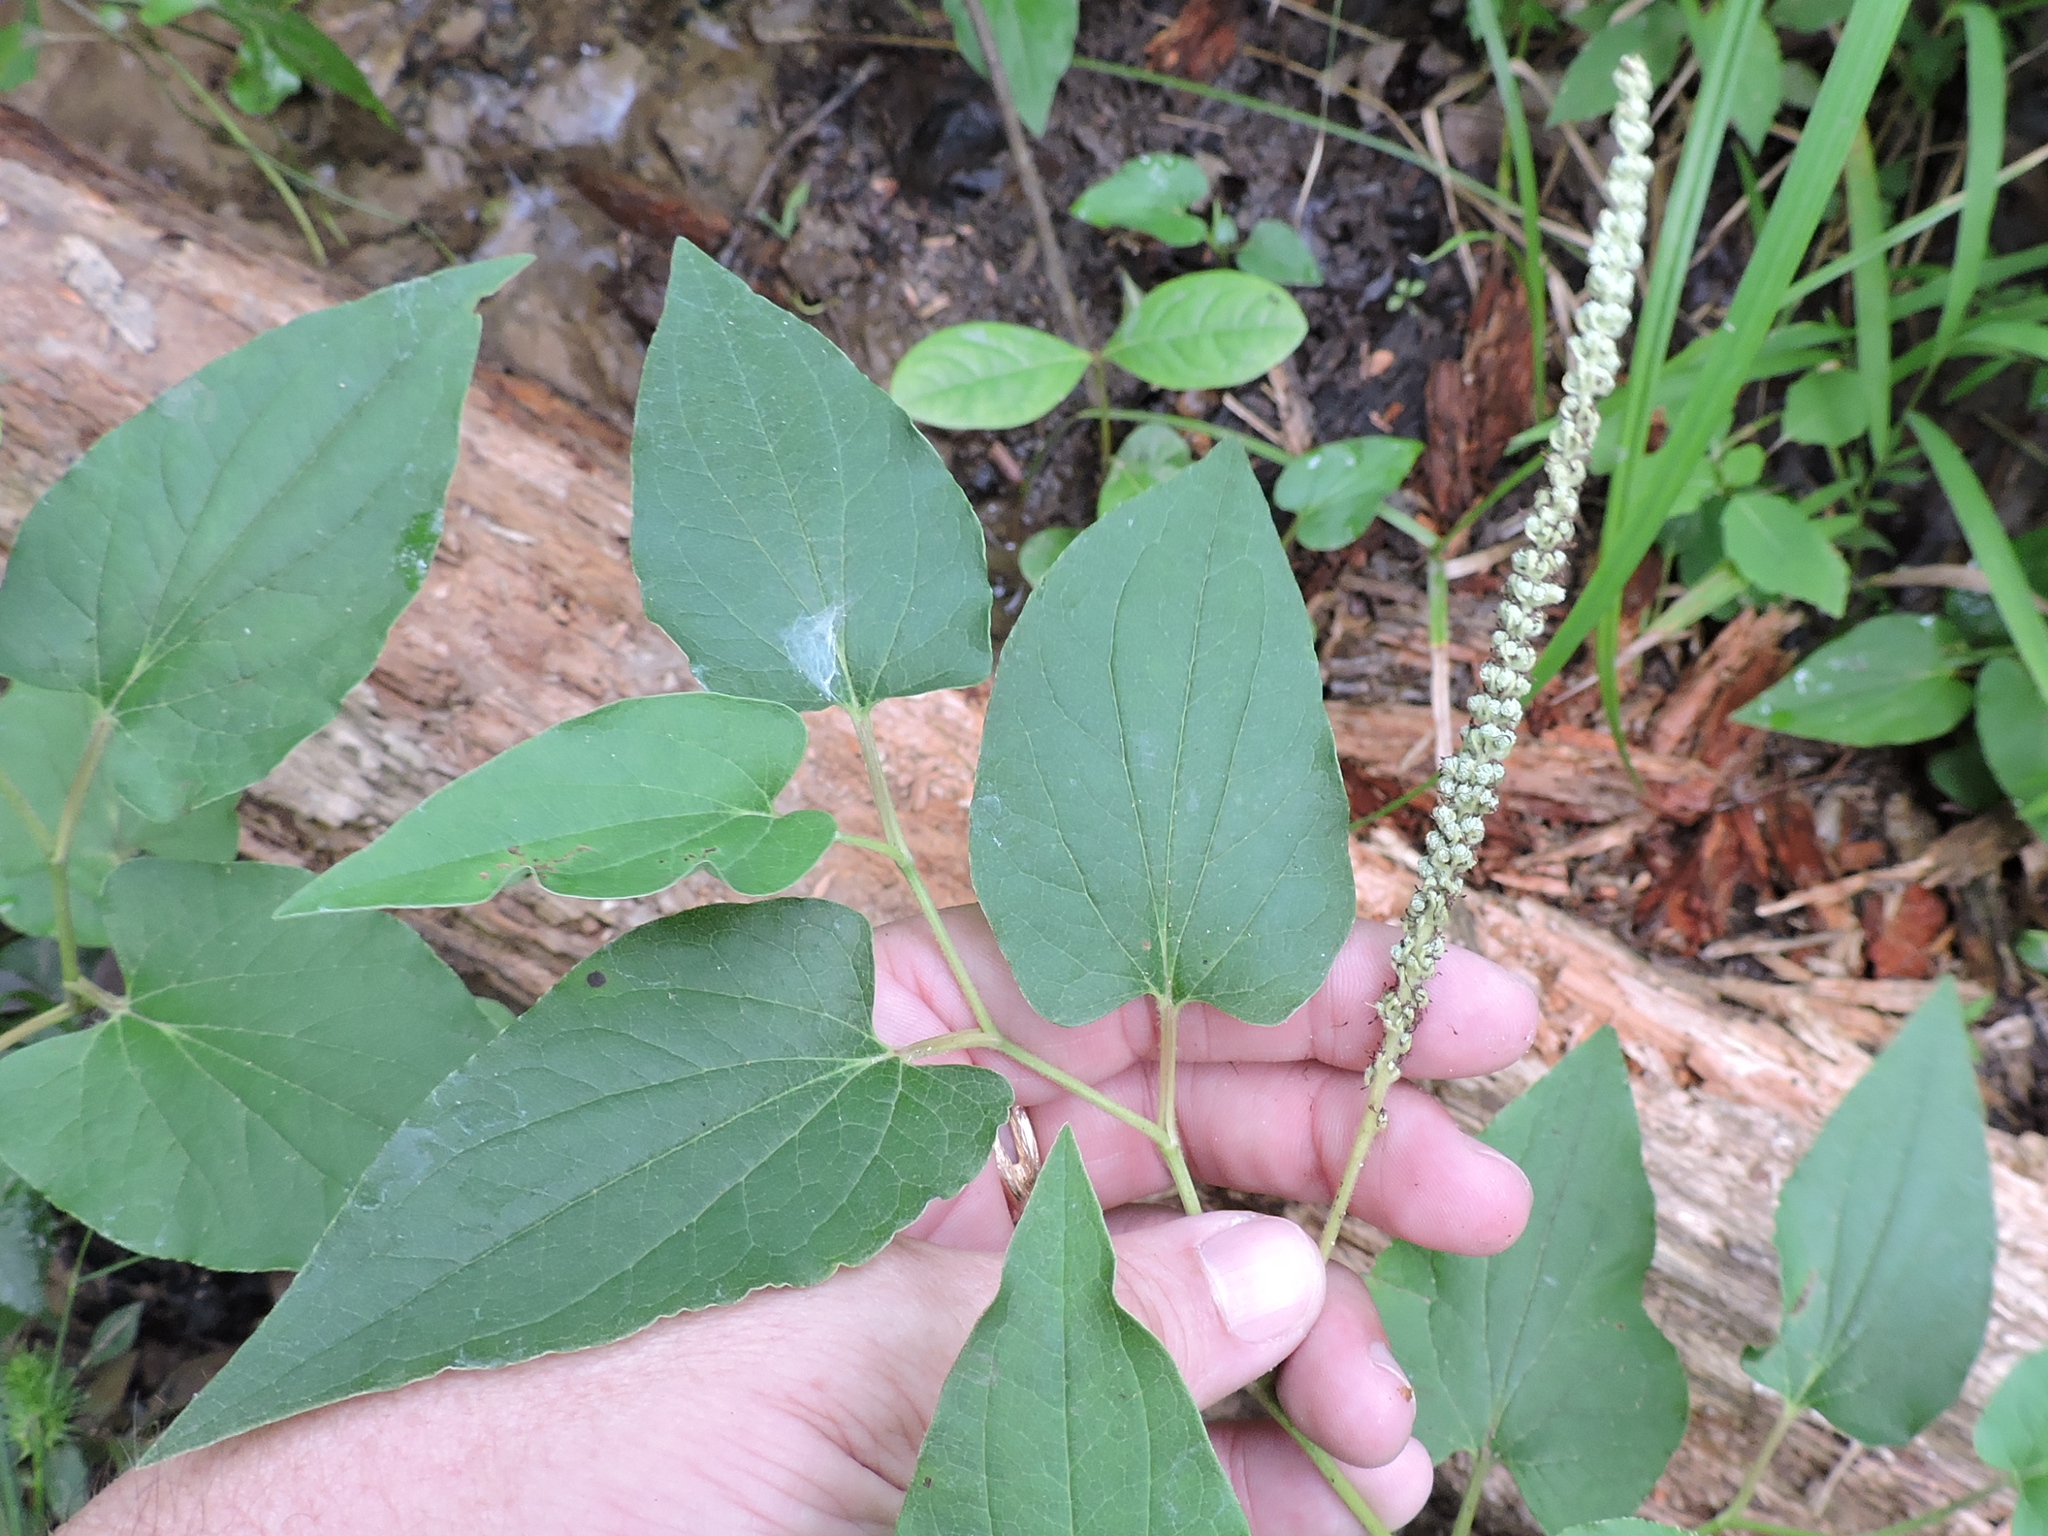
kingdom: Plantae
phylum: Tracheophyta
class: Magnoliopsida
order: Piperales
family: Saururaceae
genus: Saururus
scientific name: Saururus cernuus
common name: Lizard's-tail
